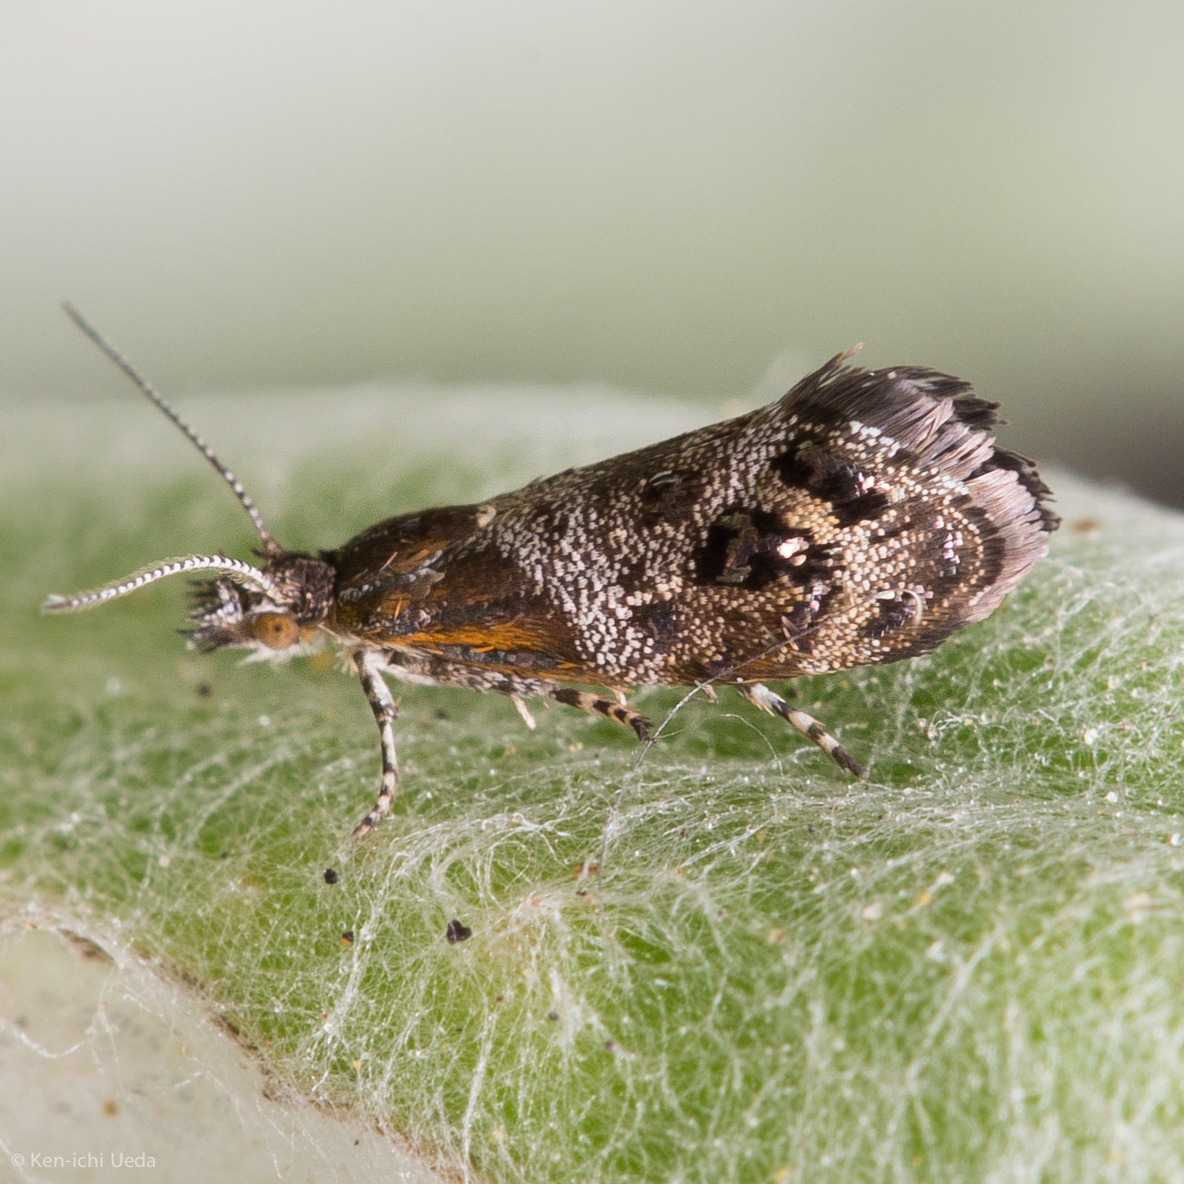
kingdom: Animalia
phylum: Arthropoda
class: Insecta
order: Lepidoptera
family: Choreutidae
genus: Tebenna
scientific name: Tebenna gnaphaliella
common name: Everlasting tebenna moth
